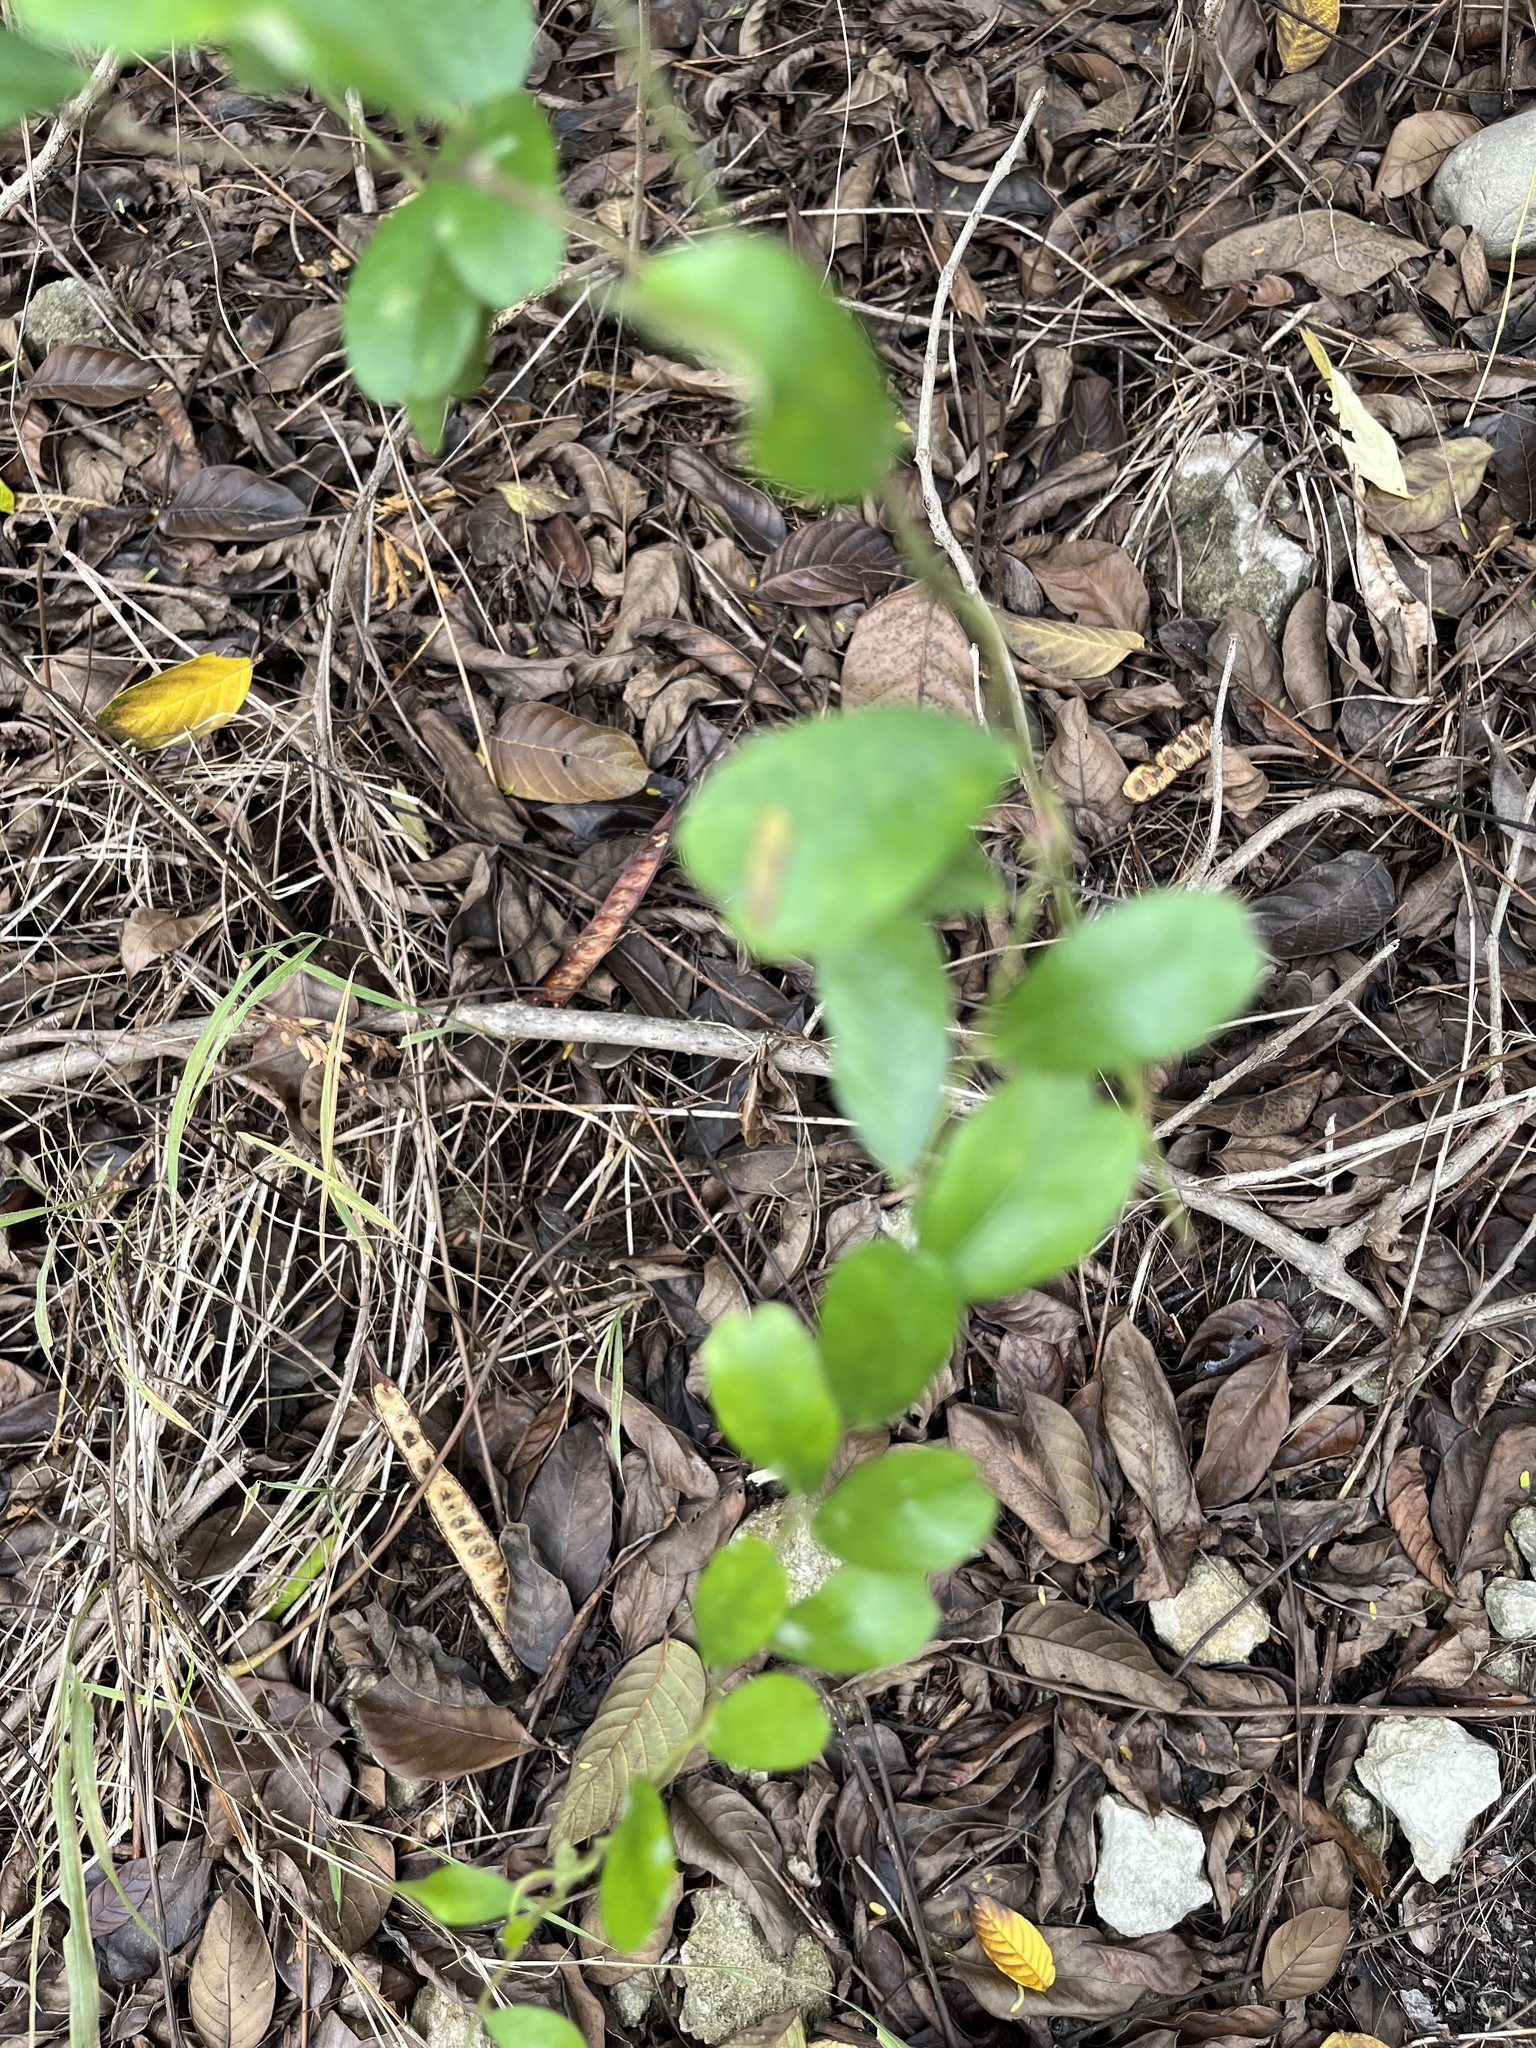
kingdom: Plantae
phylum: Tracheophyta
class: Magnoliopsida
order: Ranunculales
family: Menispermaceae
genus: Cocculus
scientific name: Cocculus orbiculatus
